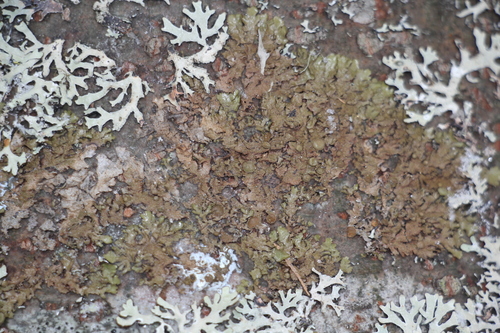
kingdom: Fungi
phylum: Ascomycota
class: Lecanoromycetes
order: Lecanorales
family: Parmeliaceae
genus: Melanohalea
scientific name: Melanohalea
